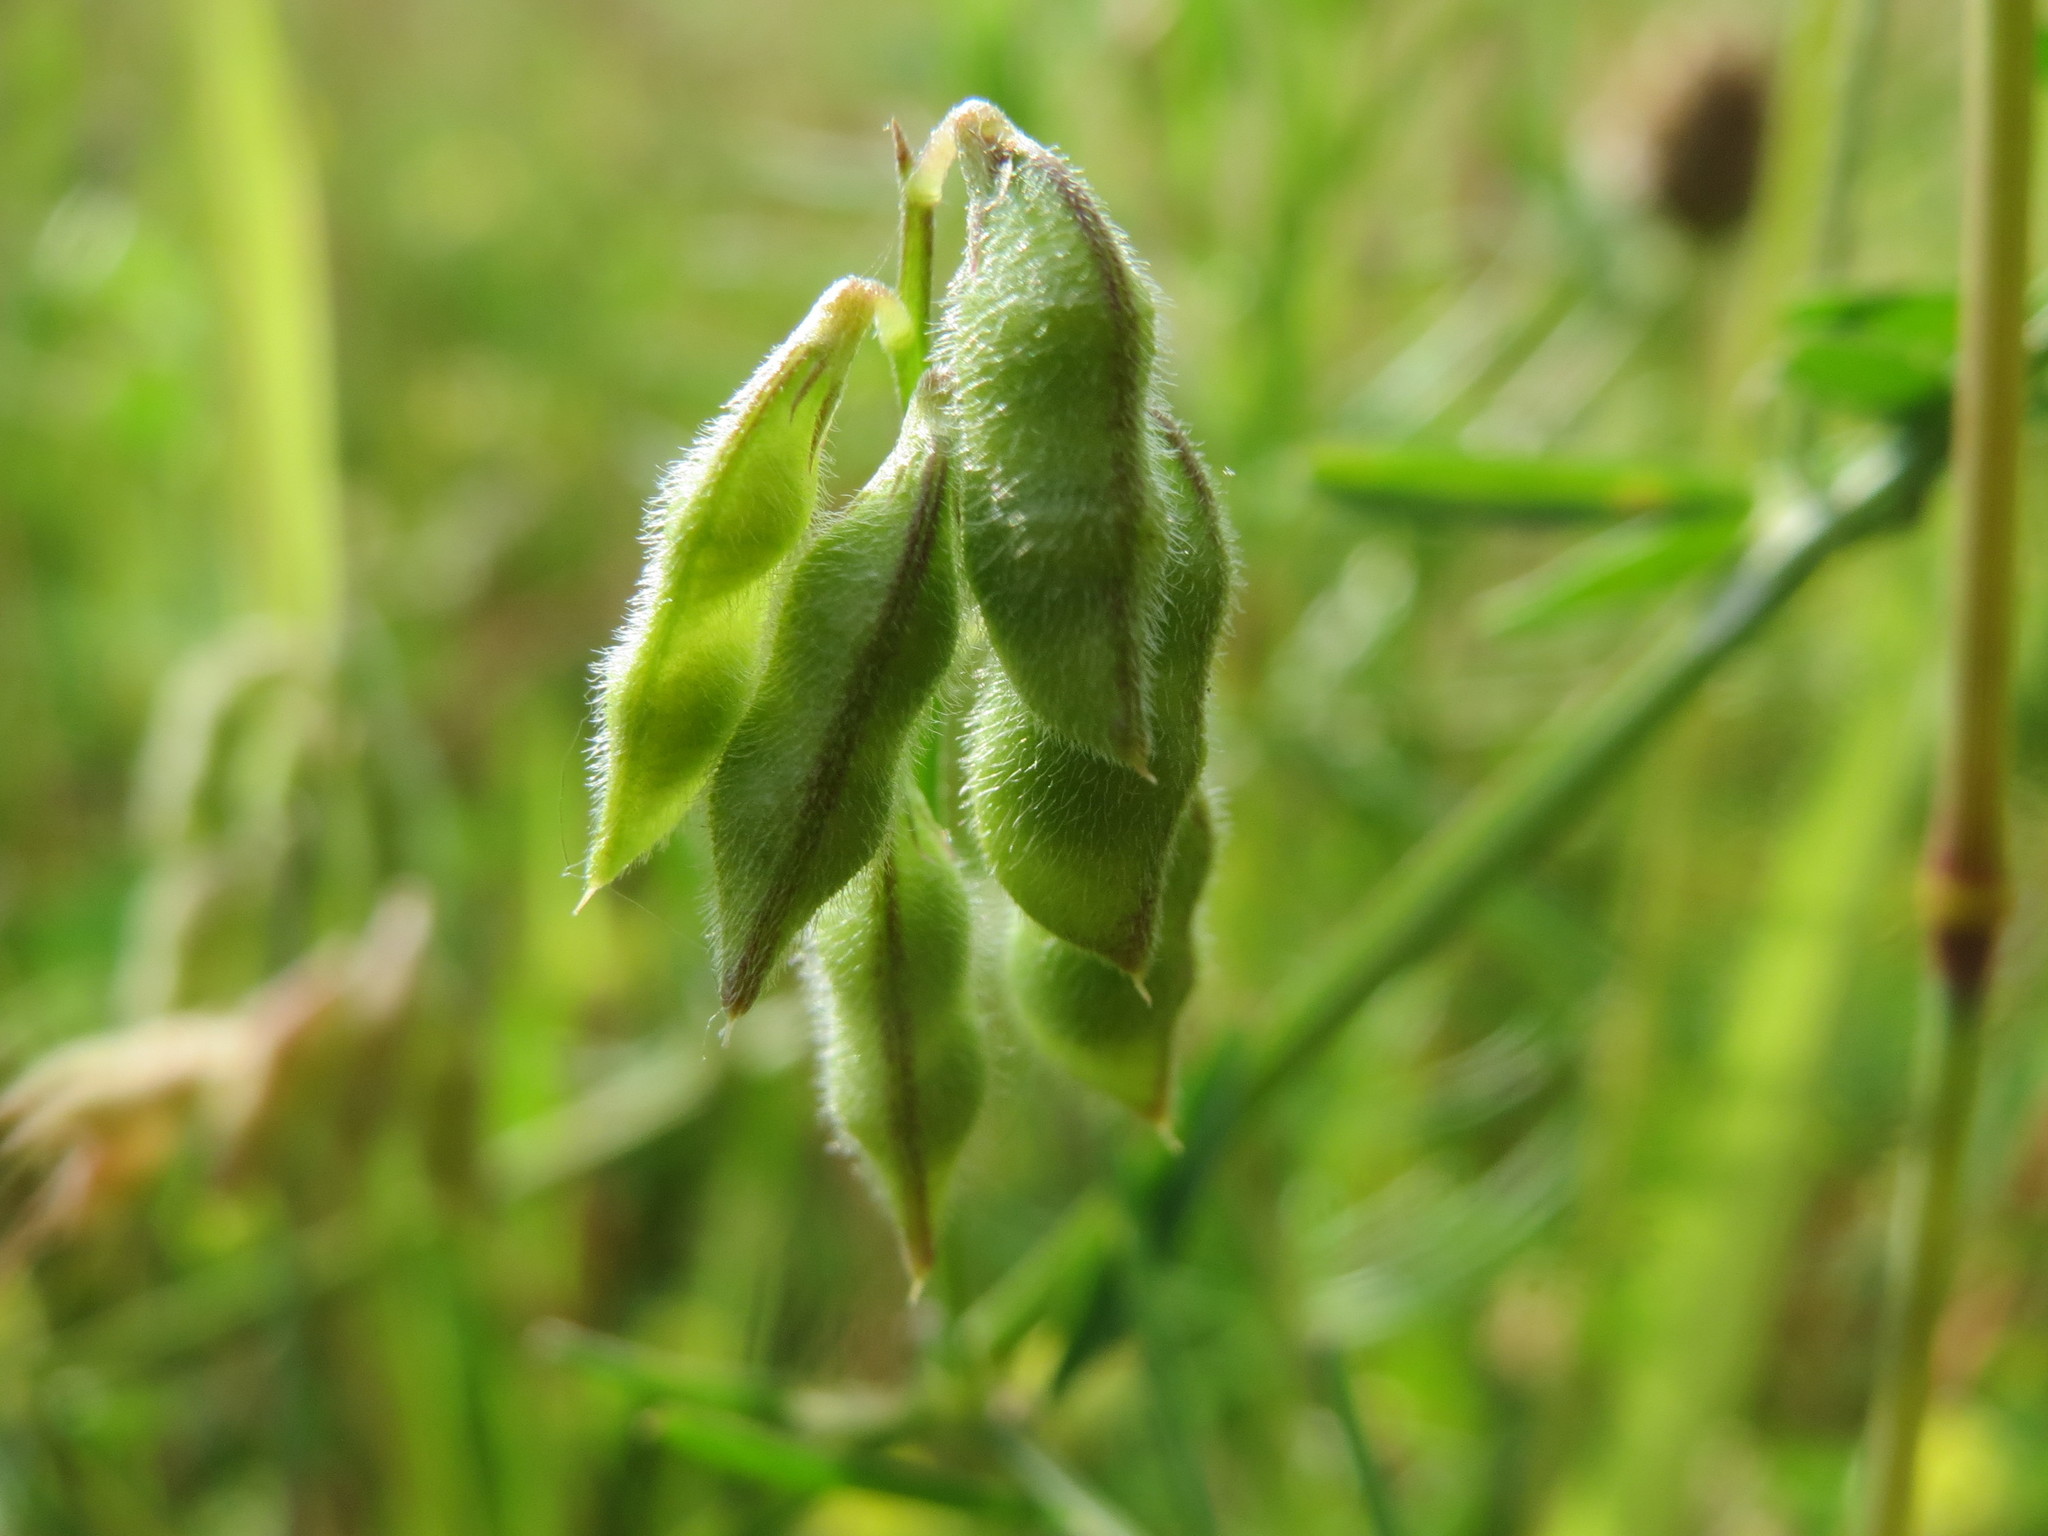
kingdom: Plantae
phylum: Tracheophyta
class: Magnoliopsida
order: Fabales
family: Fabaceae
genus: Vicia
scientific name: Vicia hirsuta
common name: Tiny vetch
